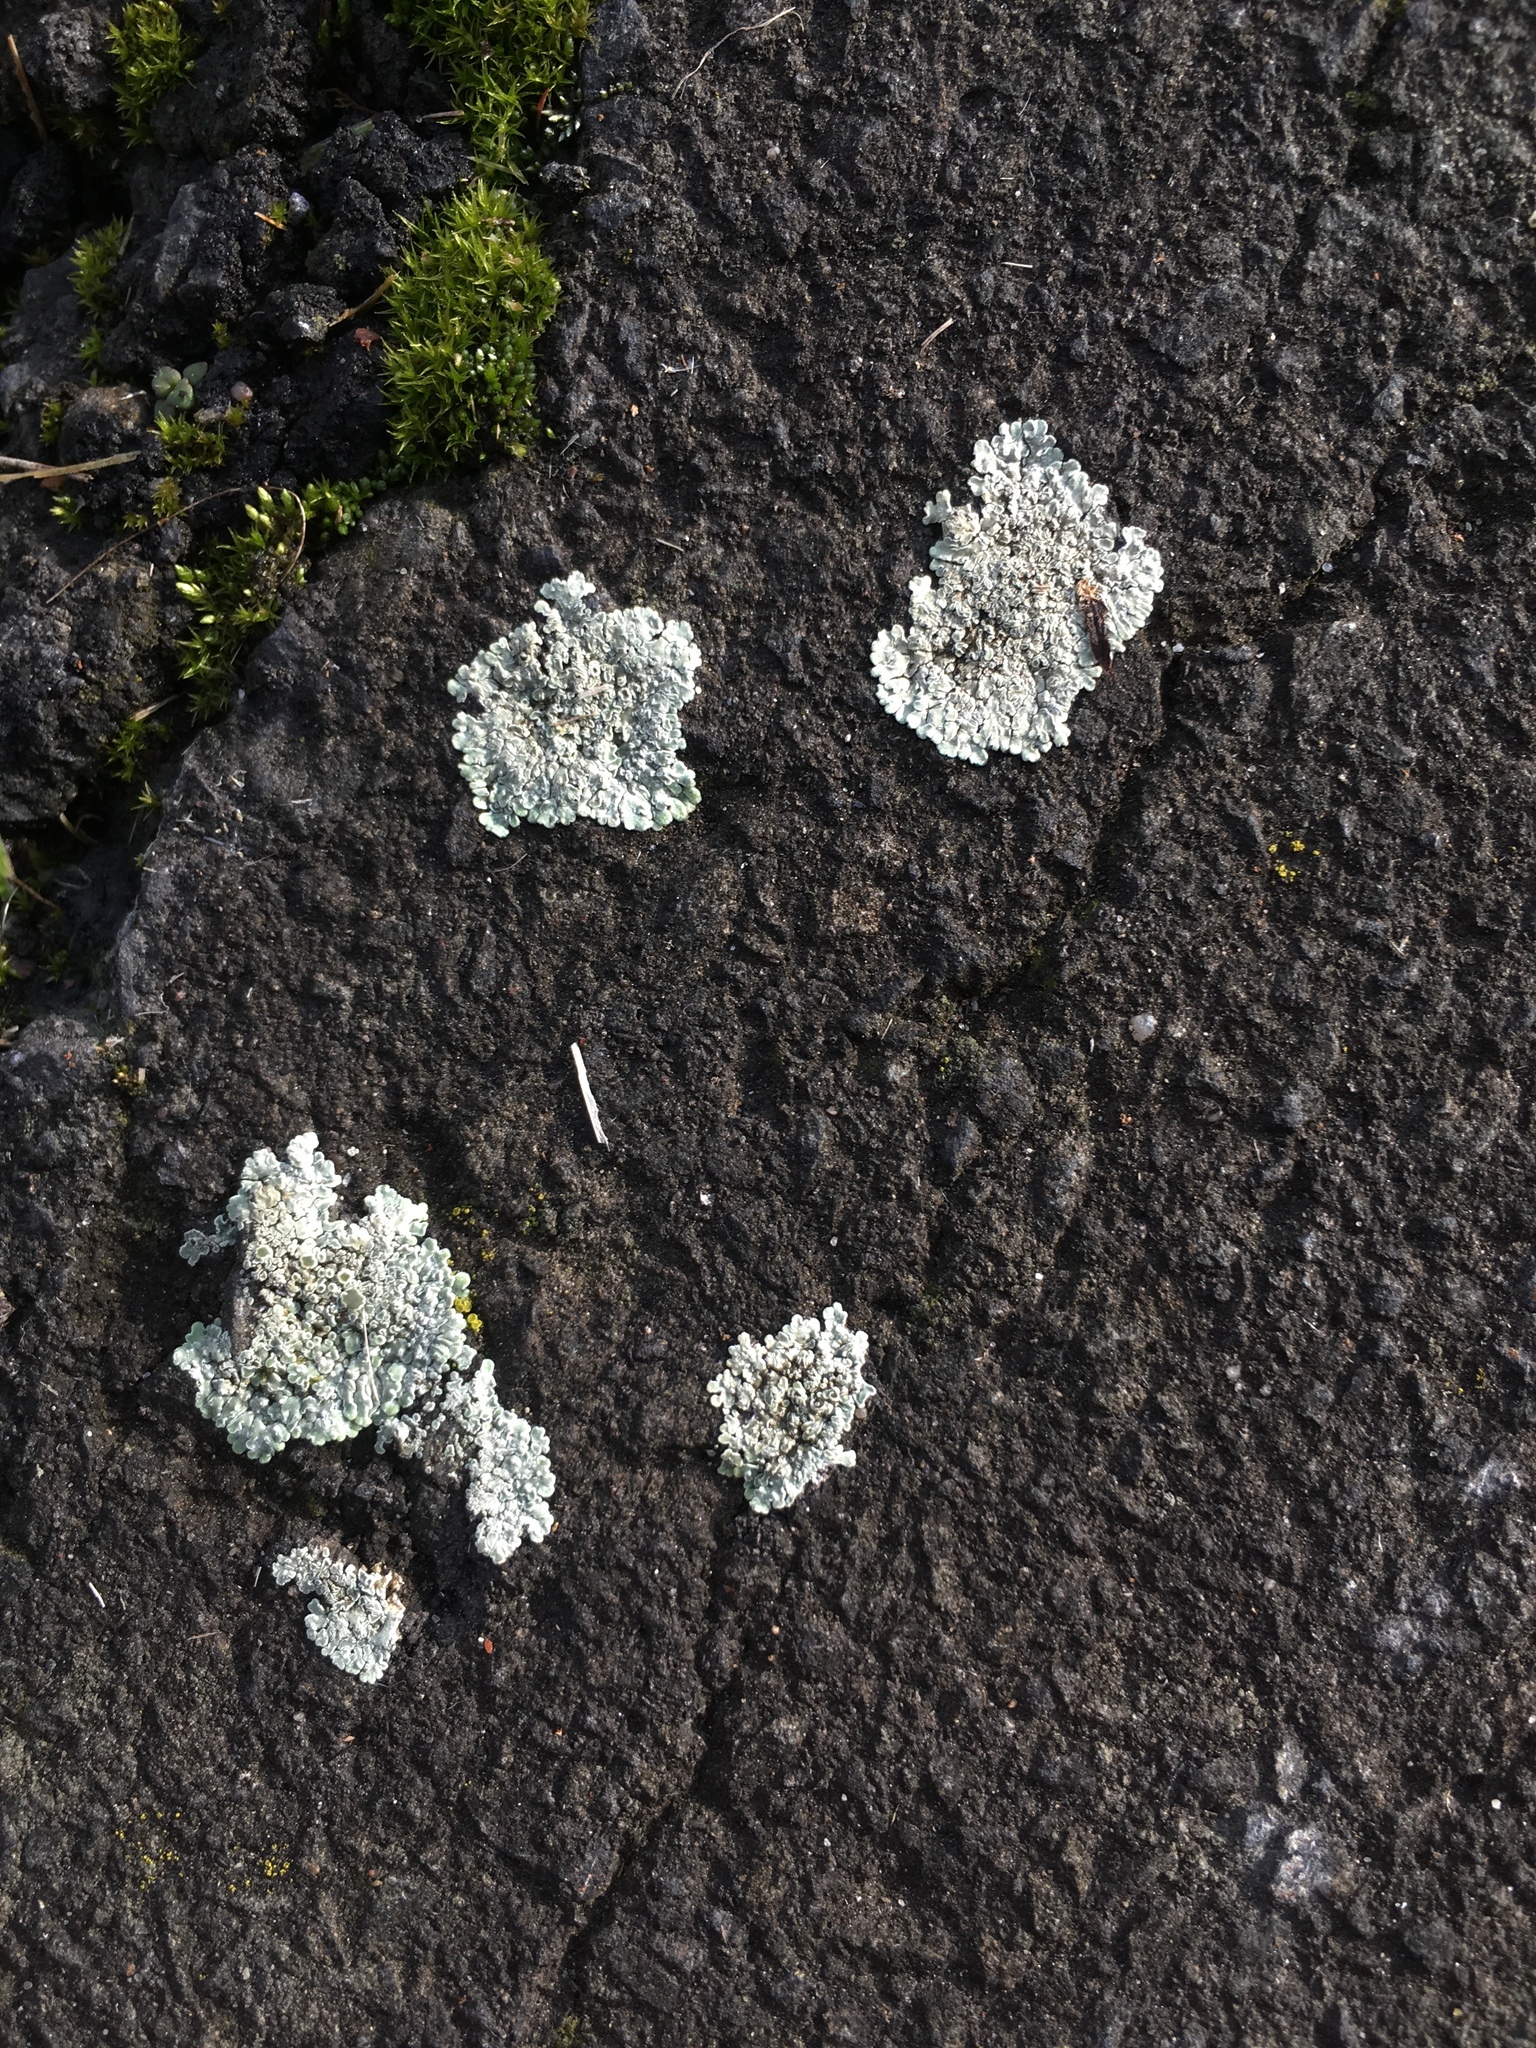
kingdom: Fungi
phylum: Ascomycota
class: Lecanoromycetes
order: Lecanorales
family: Lecanoraceae
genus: Protoparmeliopsis
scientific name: Protoparmeliopsis muralis
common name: Stonewall rim lichen
